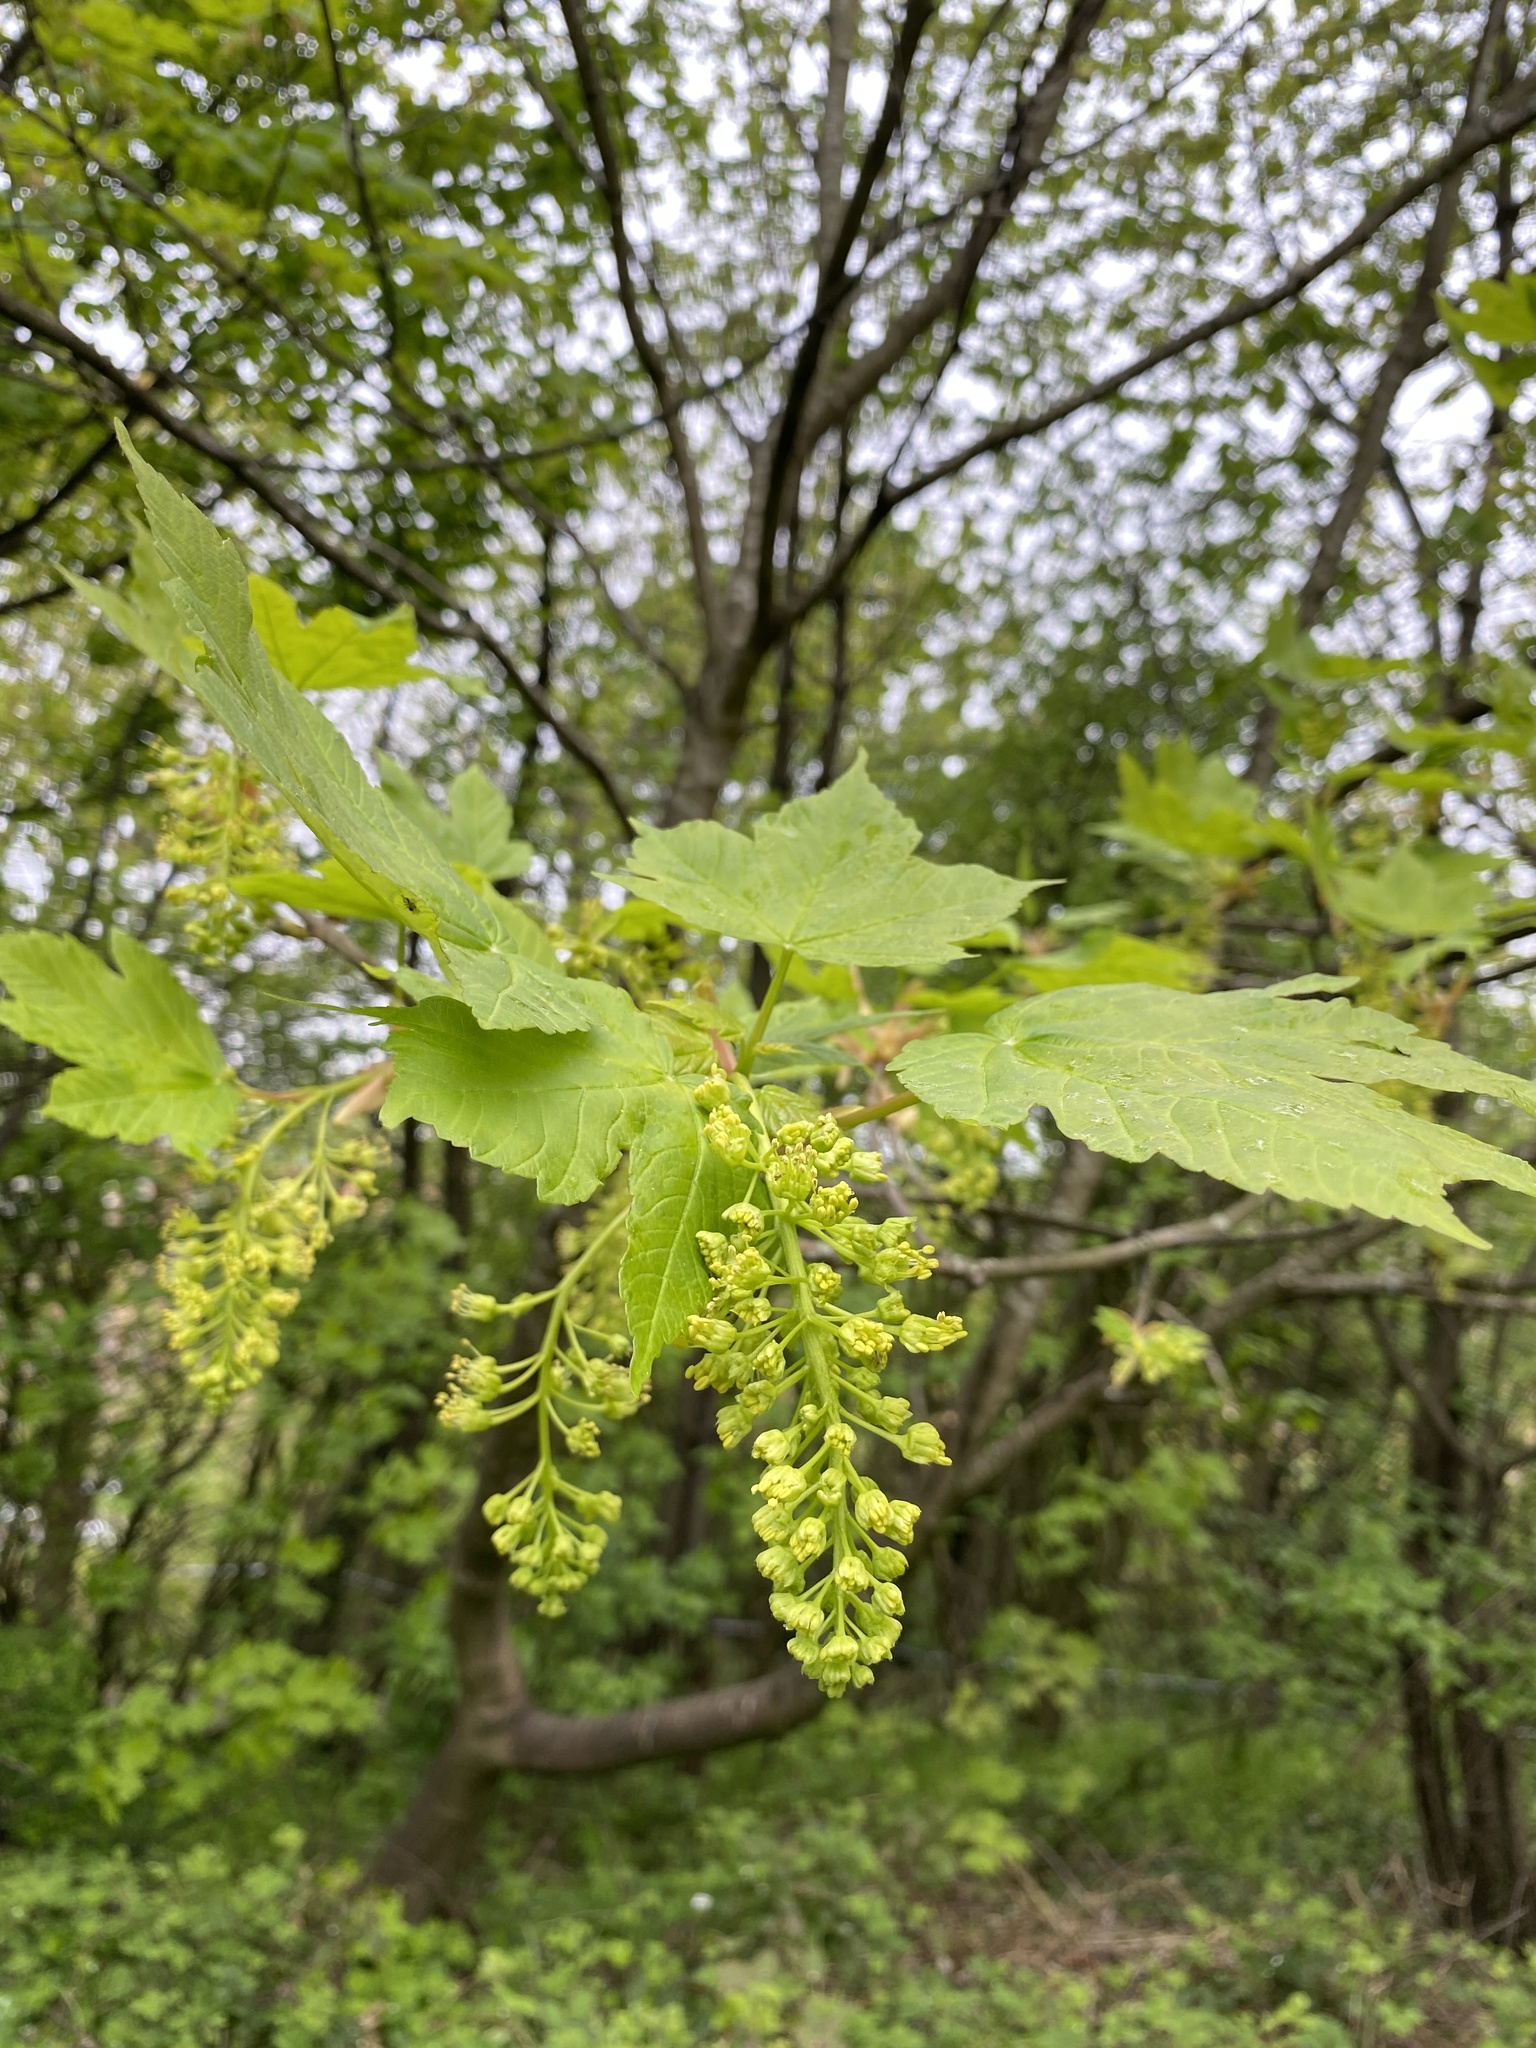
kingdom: Plantae
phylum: Tracheophyta
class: Magnoliopsida
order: Sapindales
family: Sapindaceae
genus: Acer
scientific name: Acer pseudoplatanus
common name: Sycamore
